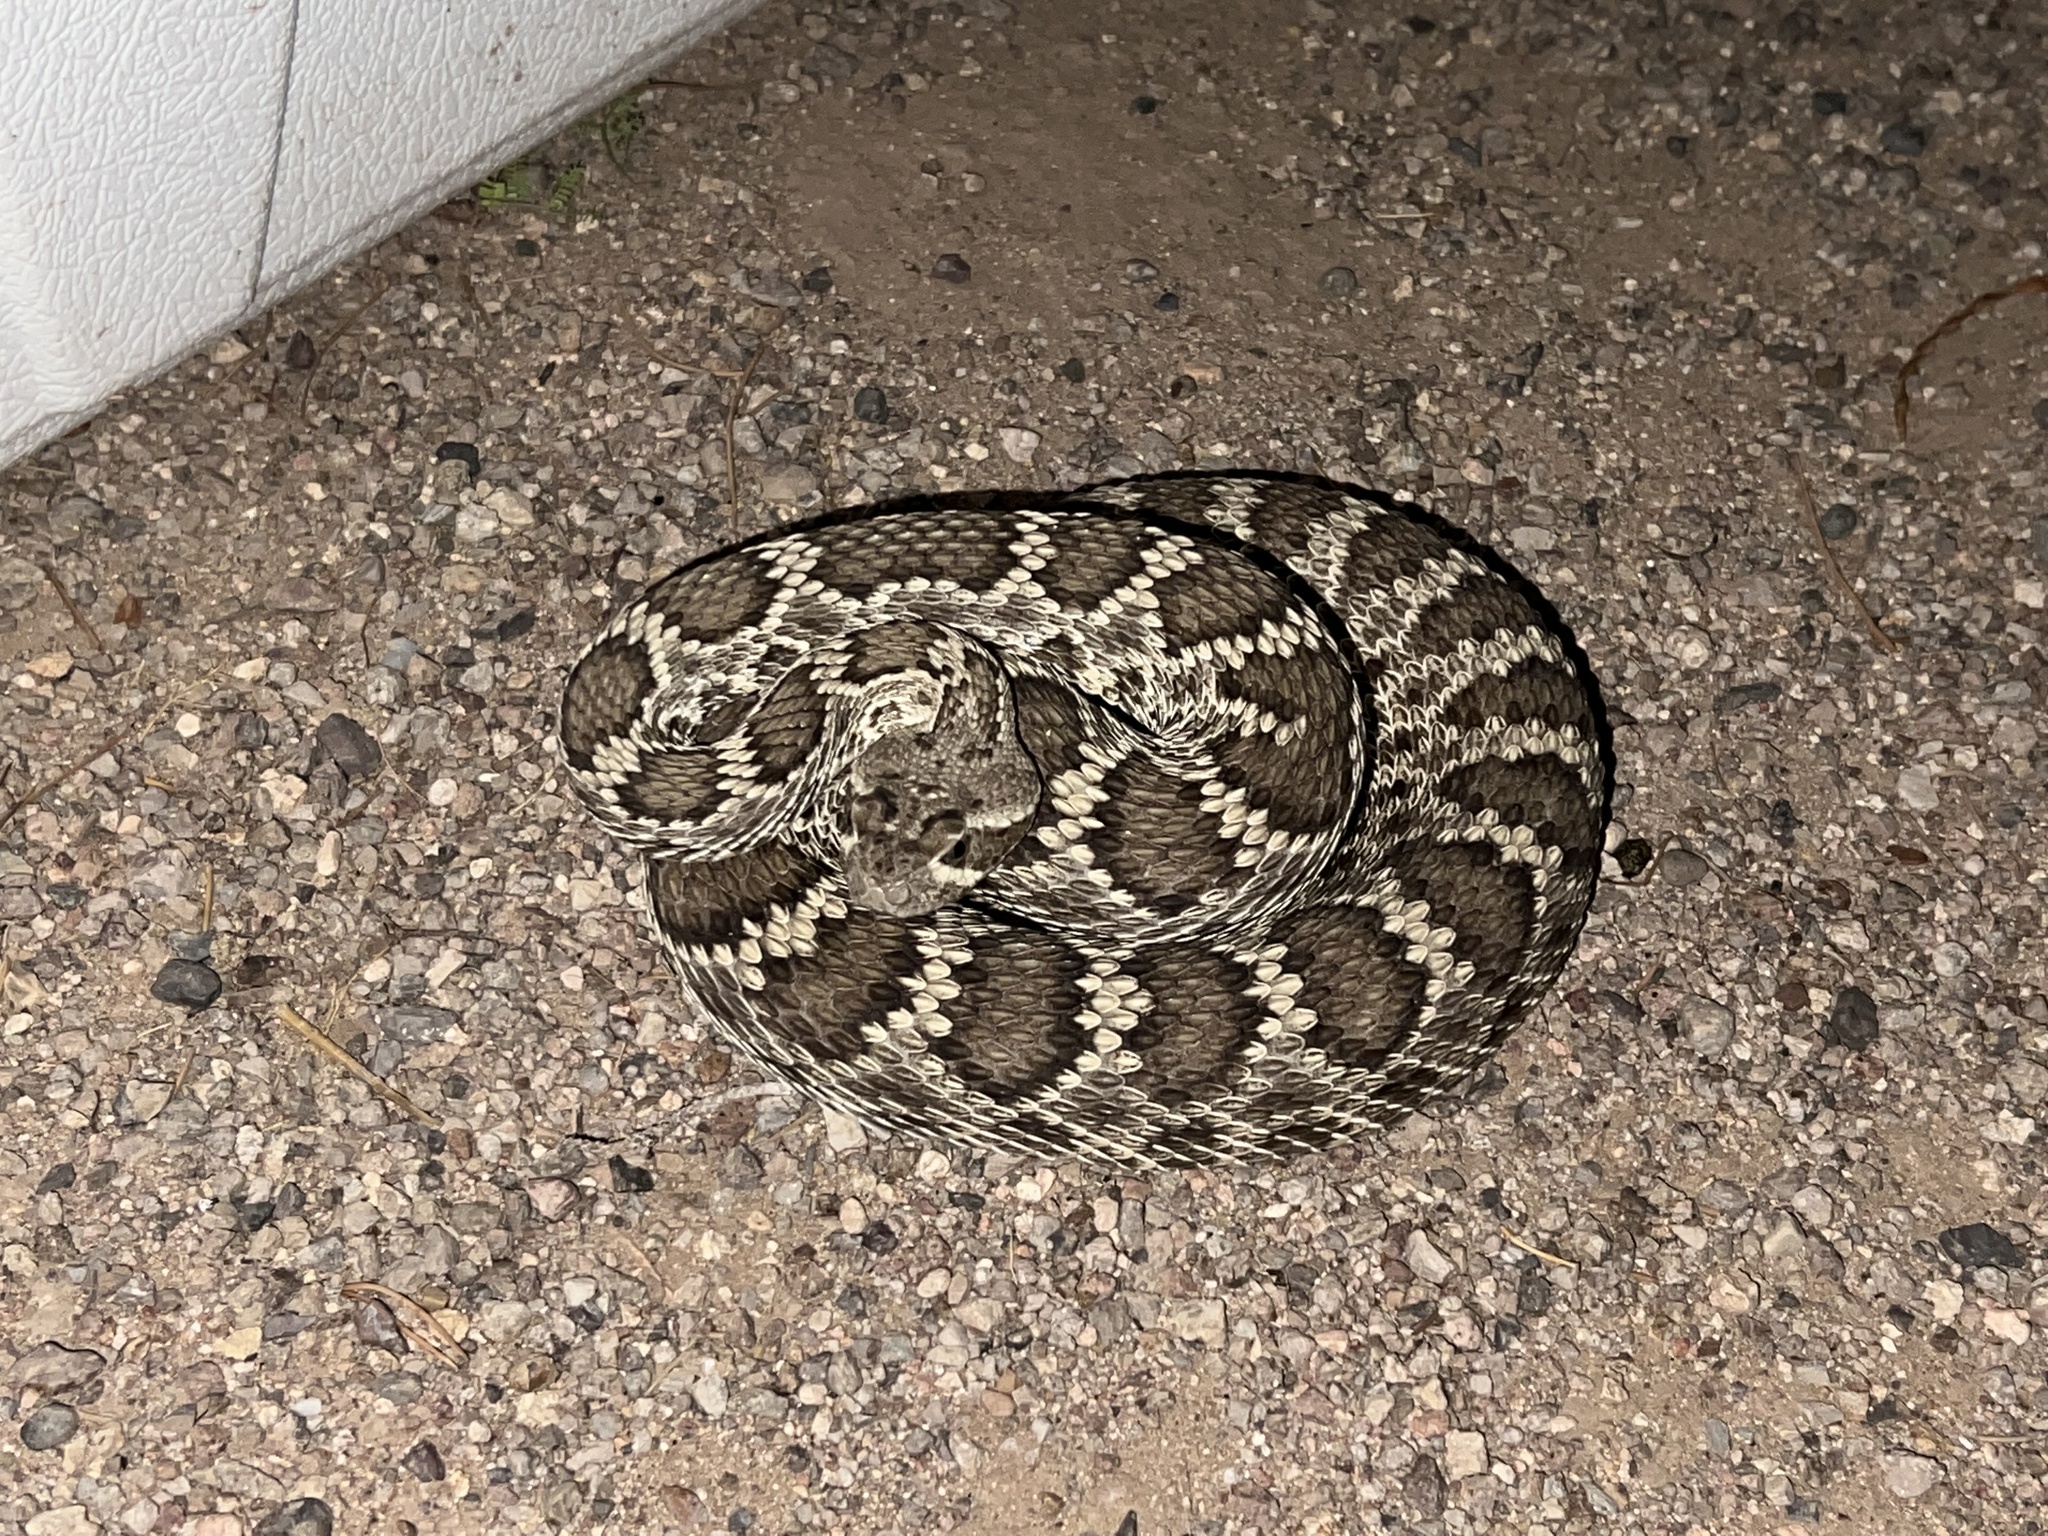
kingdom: Animalia
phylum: Chordata
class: Squamata
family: Viperidae
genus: Crotalus
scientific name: Crotalus scutulatus
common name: Scutulatus
